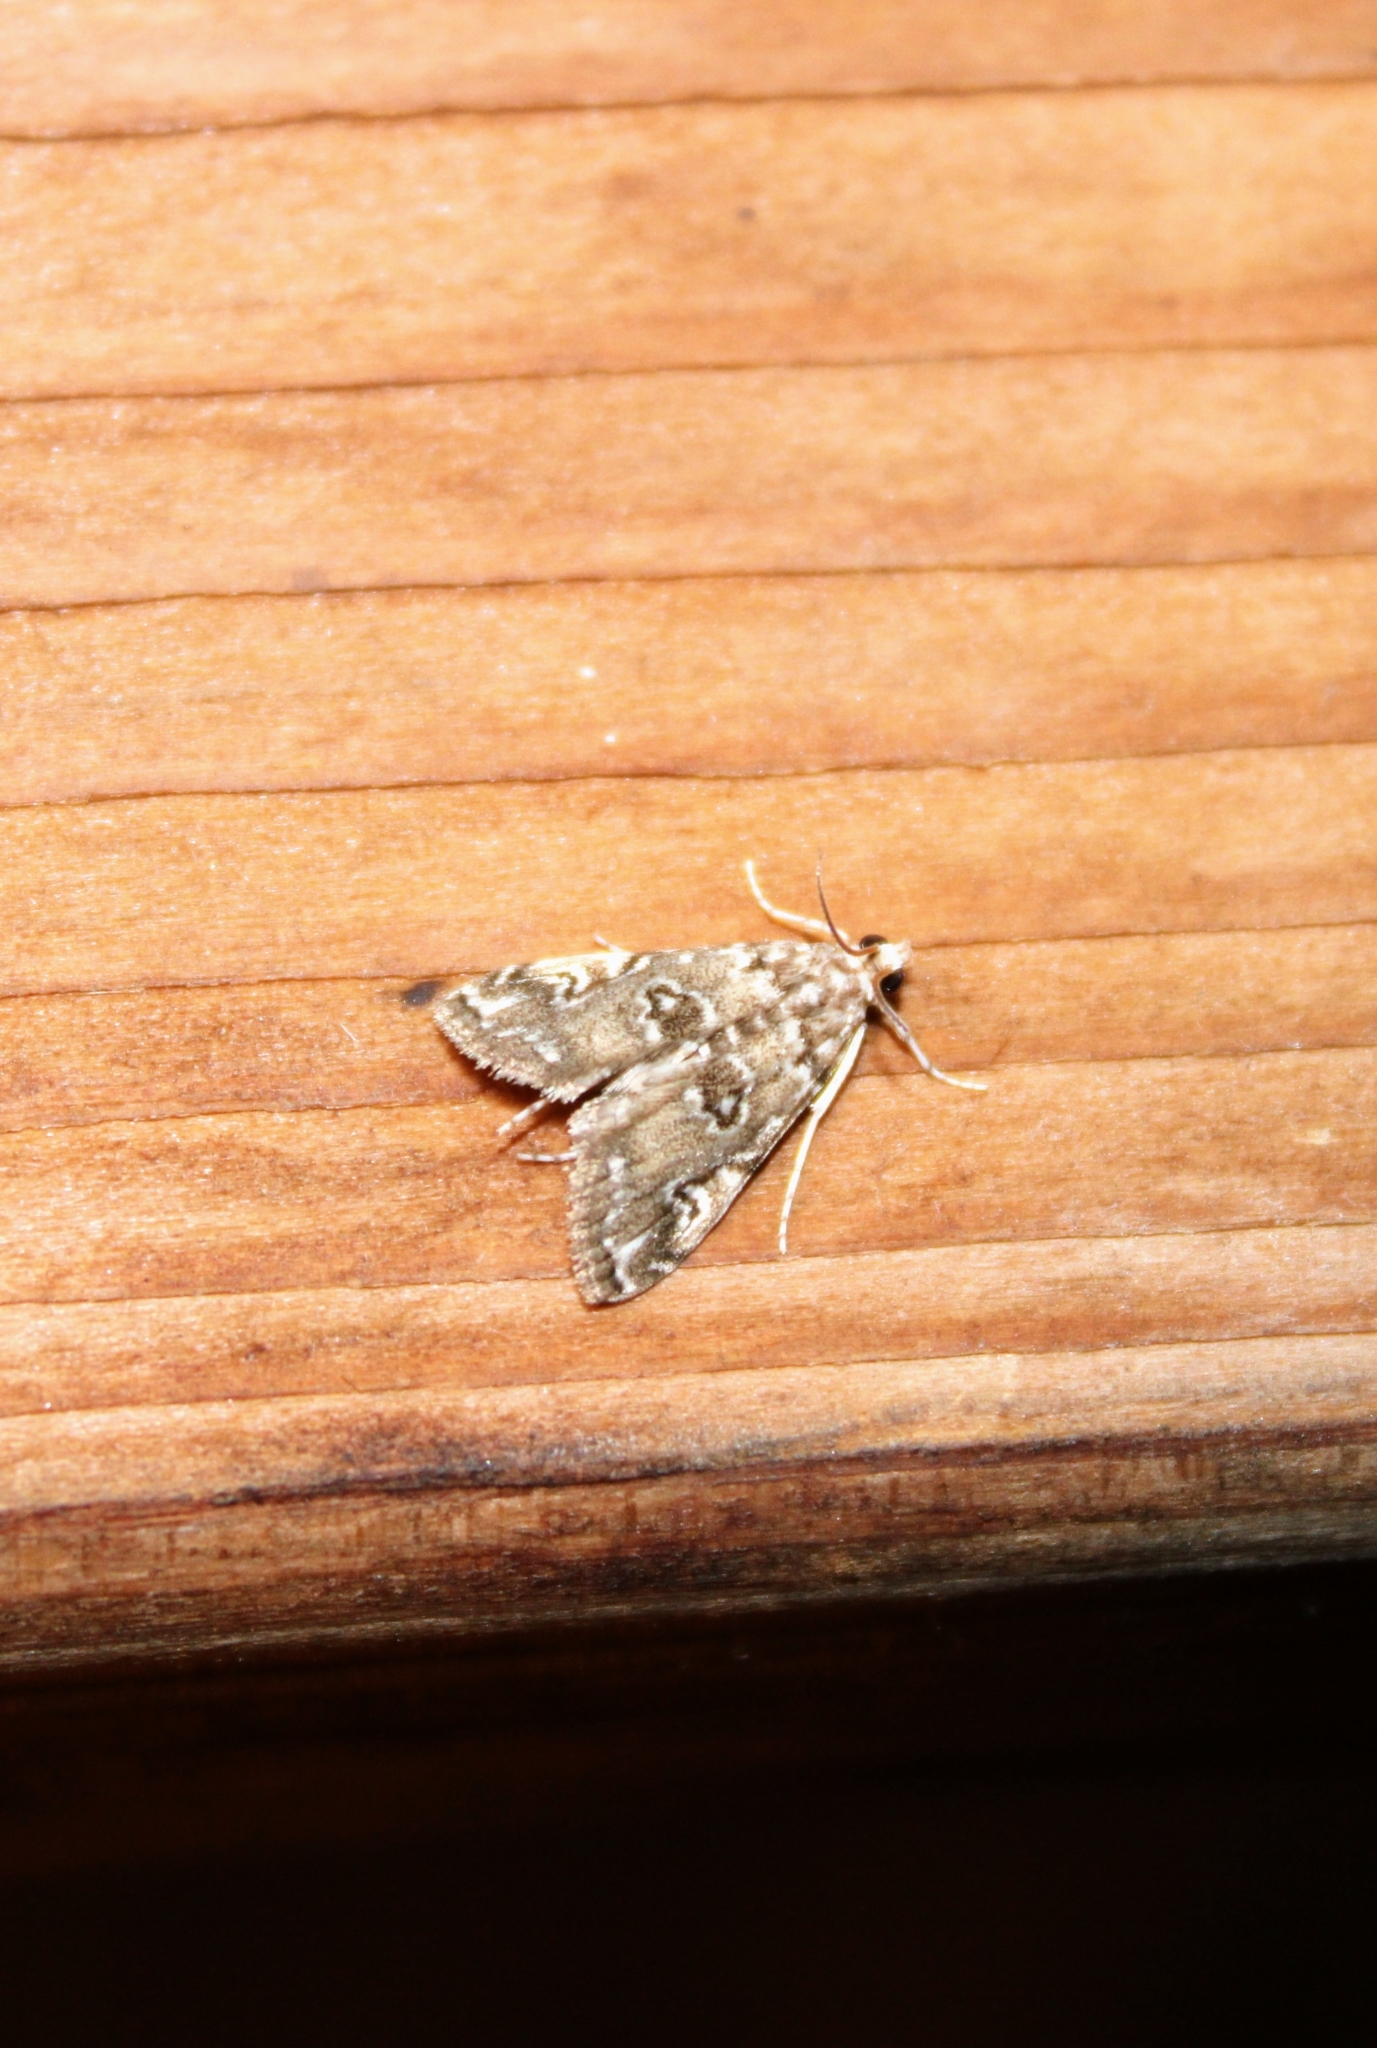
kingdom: Animalia
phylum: Arthropoda
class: Insecta
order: Lepidoptera
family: Crambidae
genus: Elophila
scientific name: Elophila gyralis
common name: Waterlily borer moth
